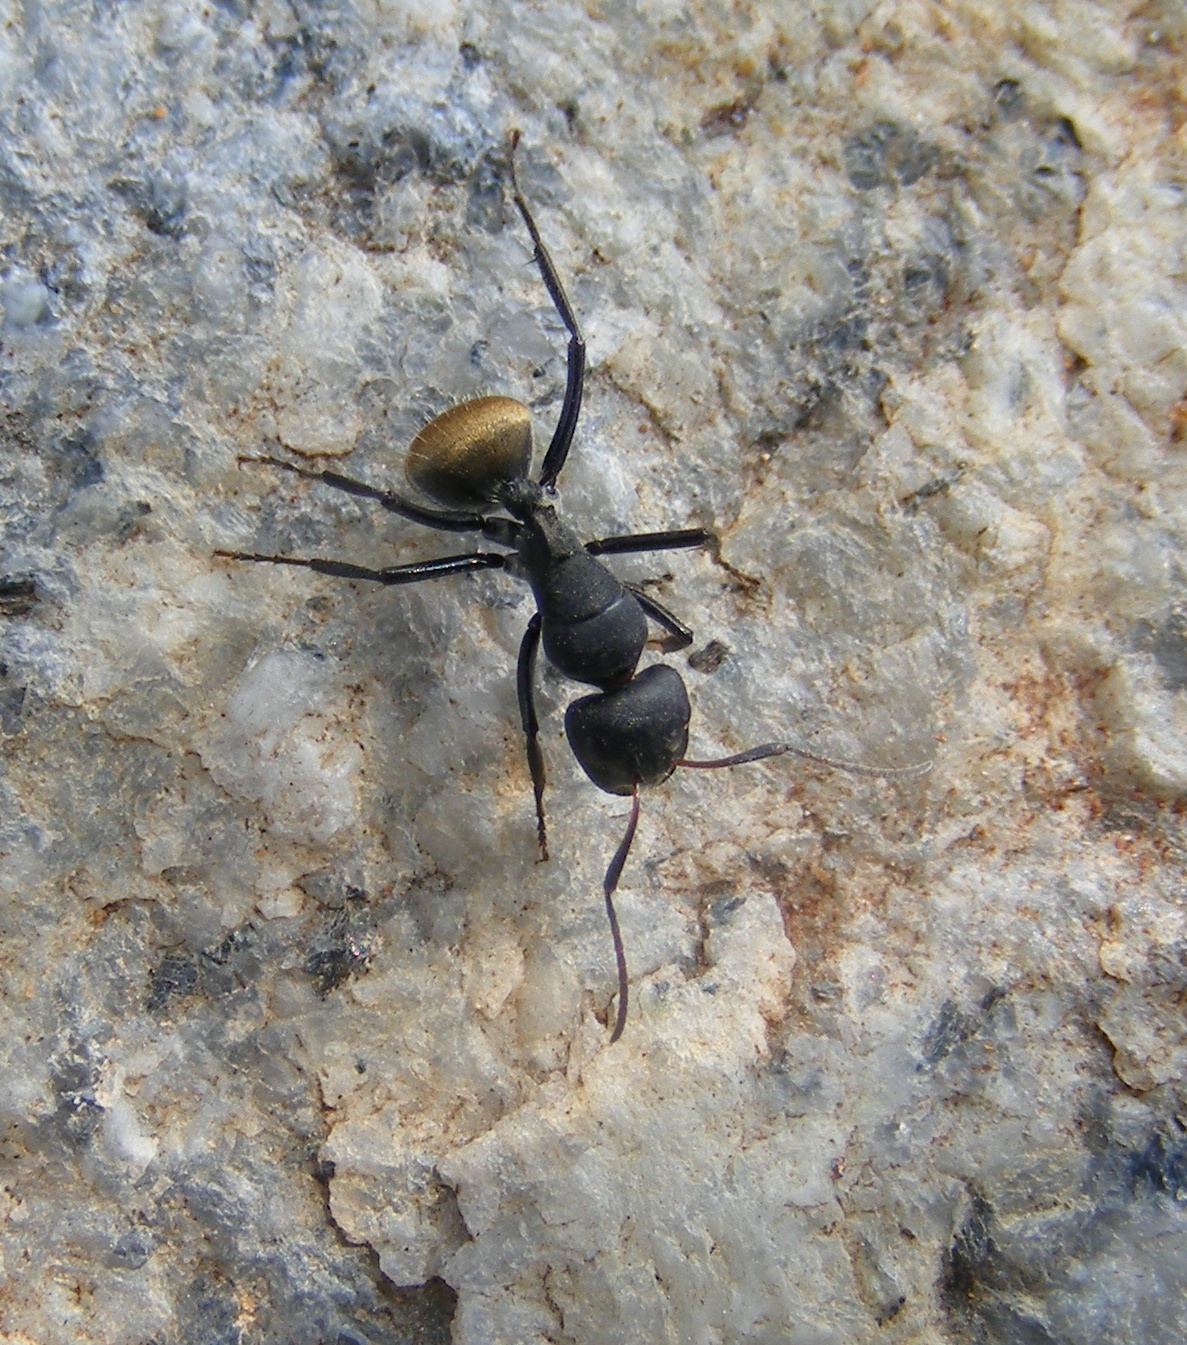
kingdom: Animalia
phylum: Arthropoda
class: Insecta
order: Hymenoptera
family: Formicidae
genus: Camponotus
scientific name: Camponotus sericeus
